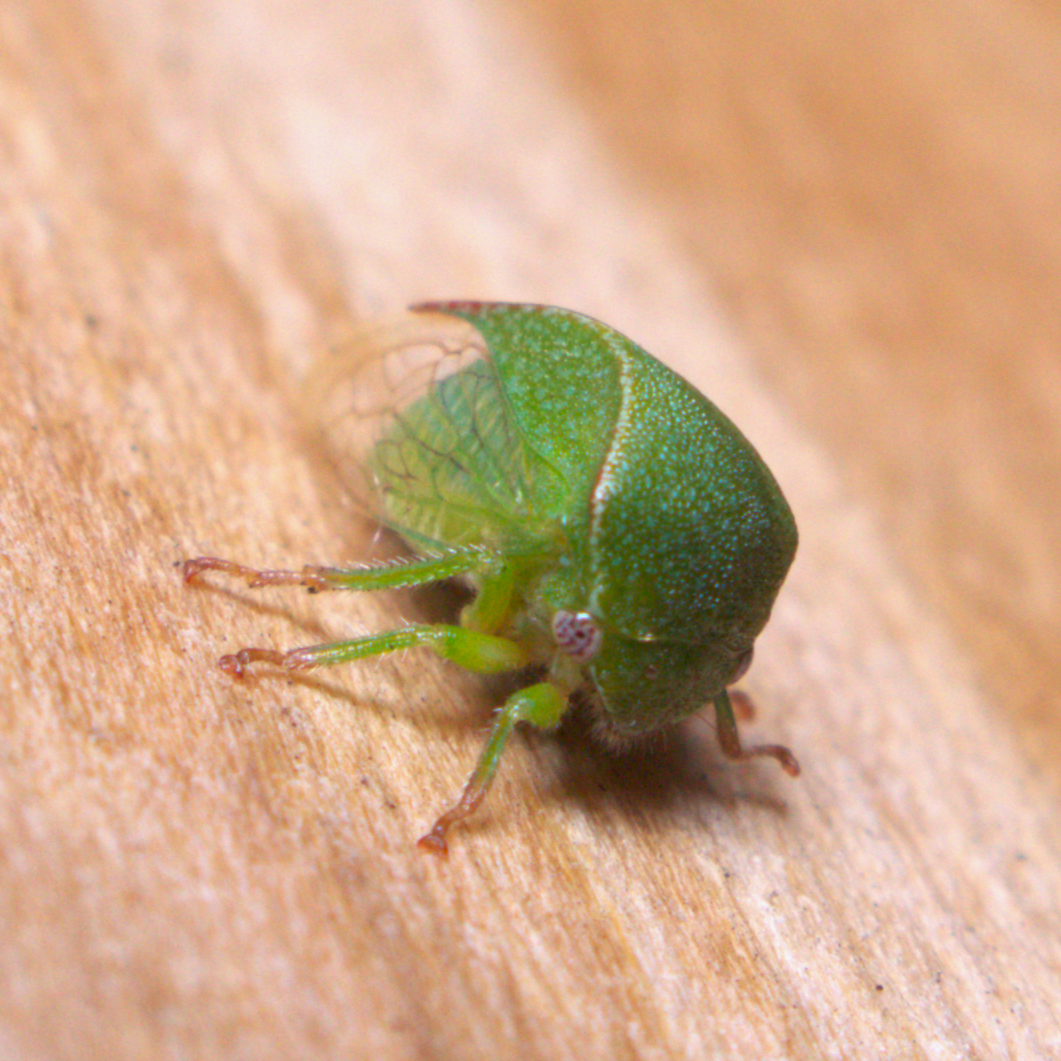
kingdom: Animalia
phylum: Arthropoda
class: Insecta
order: Hemiptera
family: Membracidae
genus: Spissistilus
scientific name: Spissistilus festina
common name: Membracid bug
